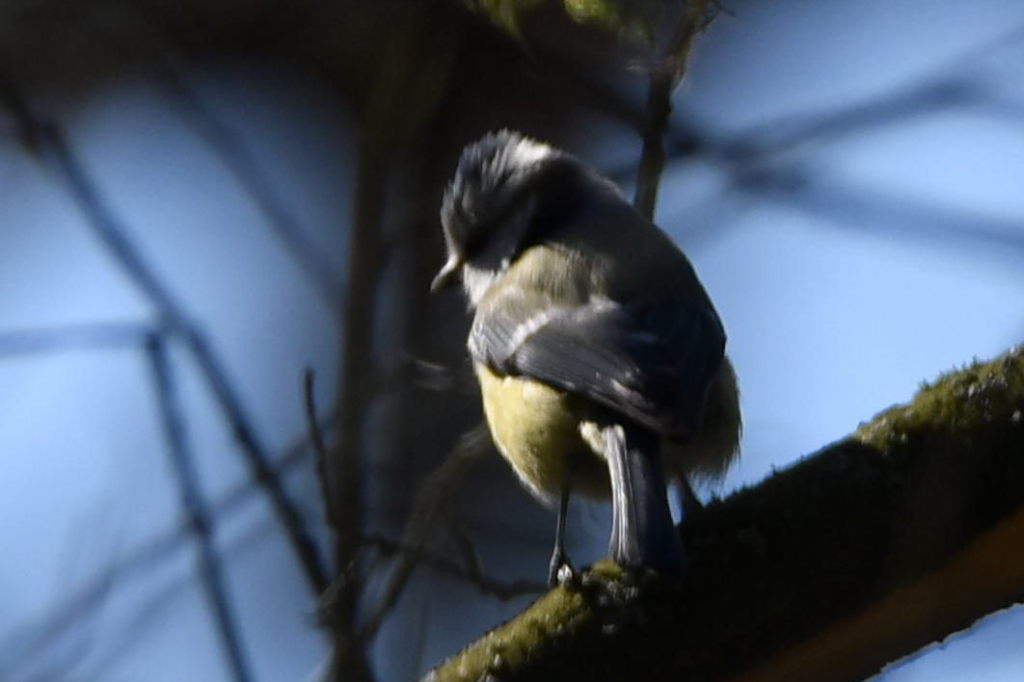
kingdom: Animalia
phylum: Chordata
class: Aves
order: Passeriformes
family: Paridae
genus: Cyanistes
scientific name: Cyanistes caeruleus
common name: Eurasian blue tit
